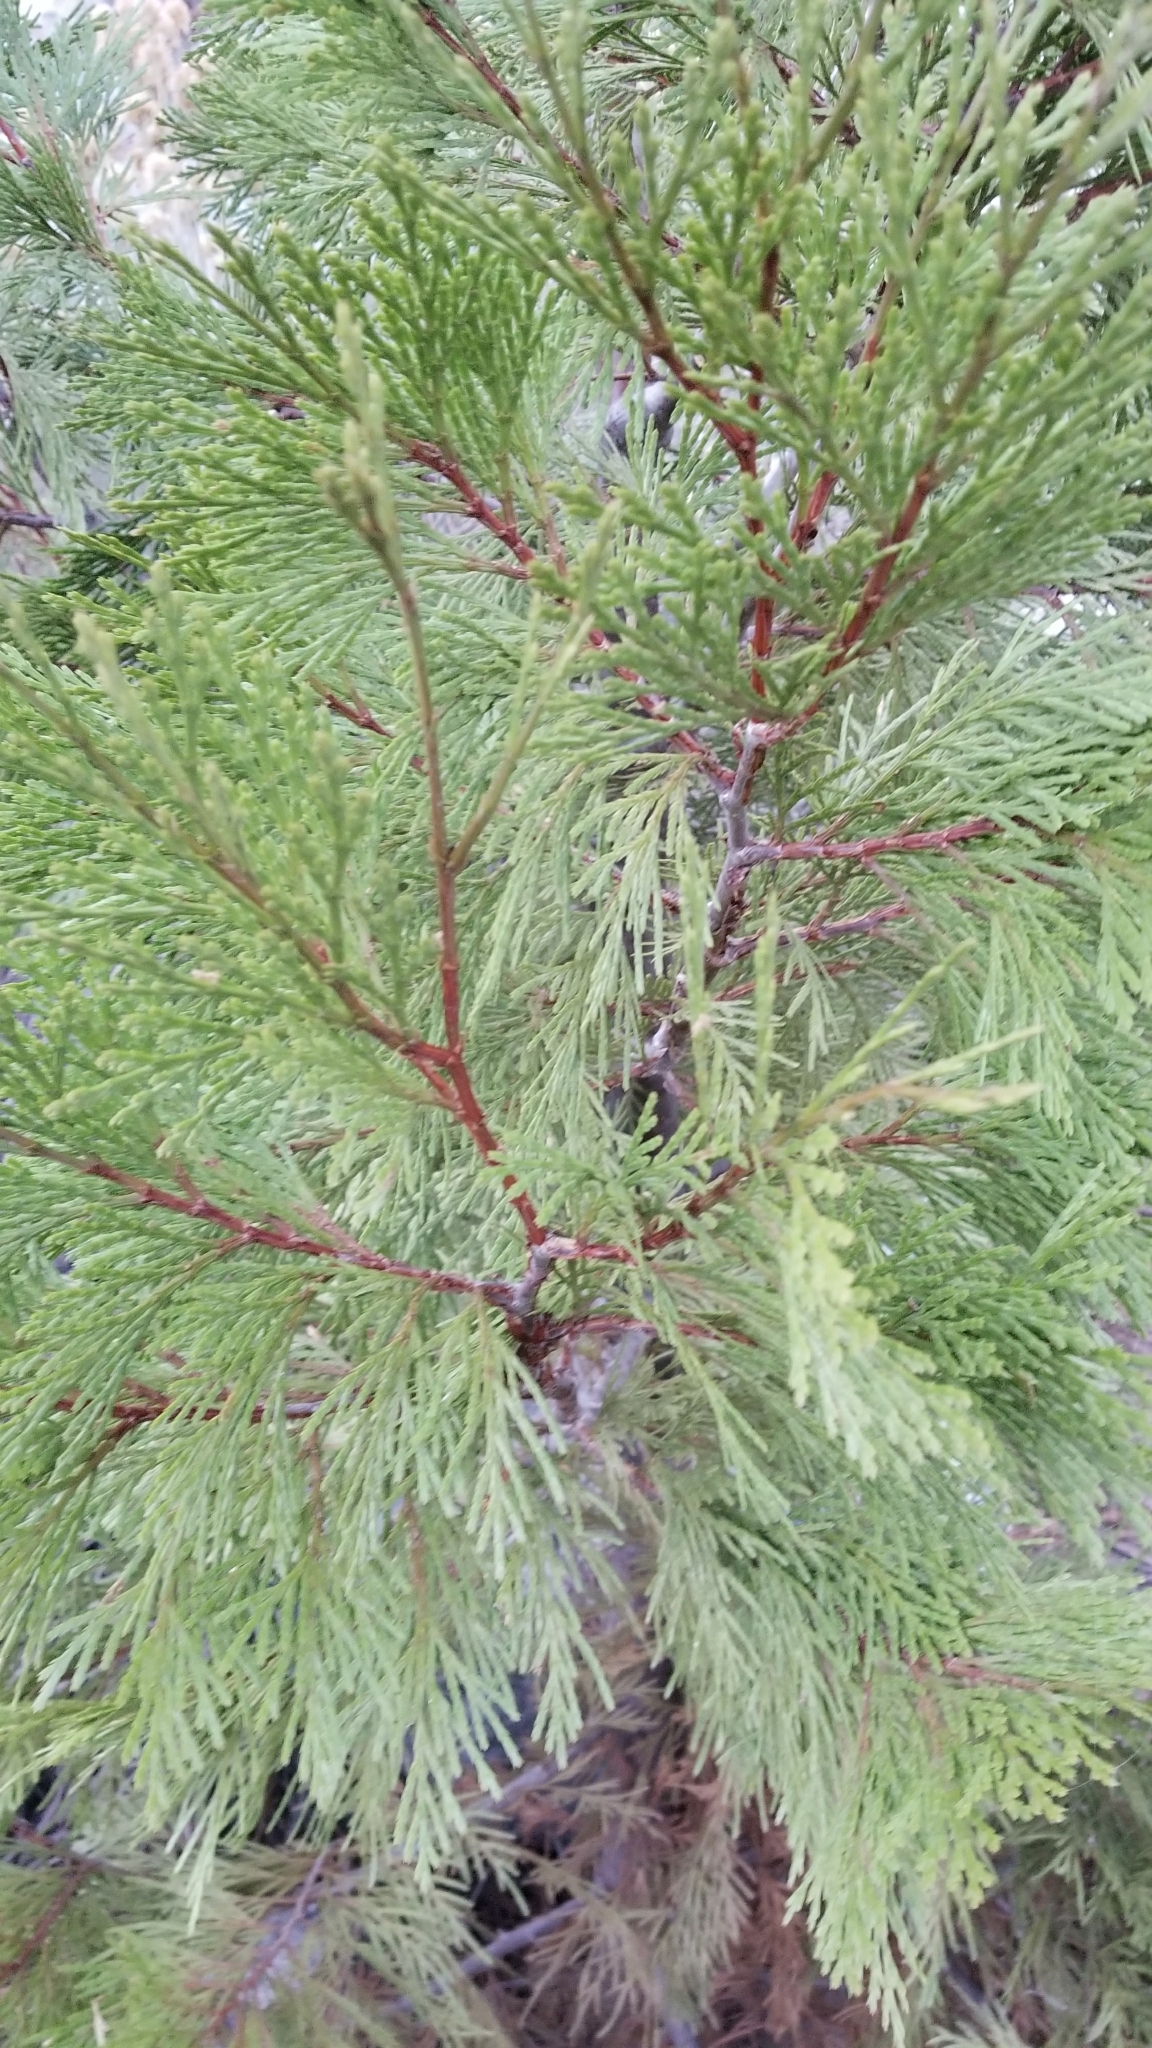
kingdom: Plantae
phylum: Tracheophyta
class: Pinopsida
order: Pinales
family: Cupressaceae
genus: Calocedrus
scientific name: Calocedrus decurrens
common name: Californian incense-cedar
